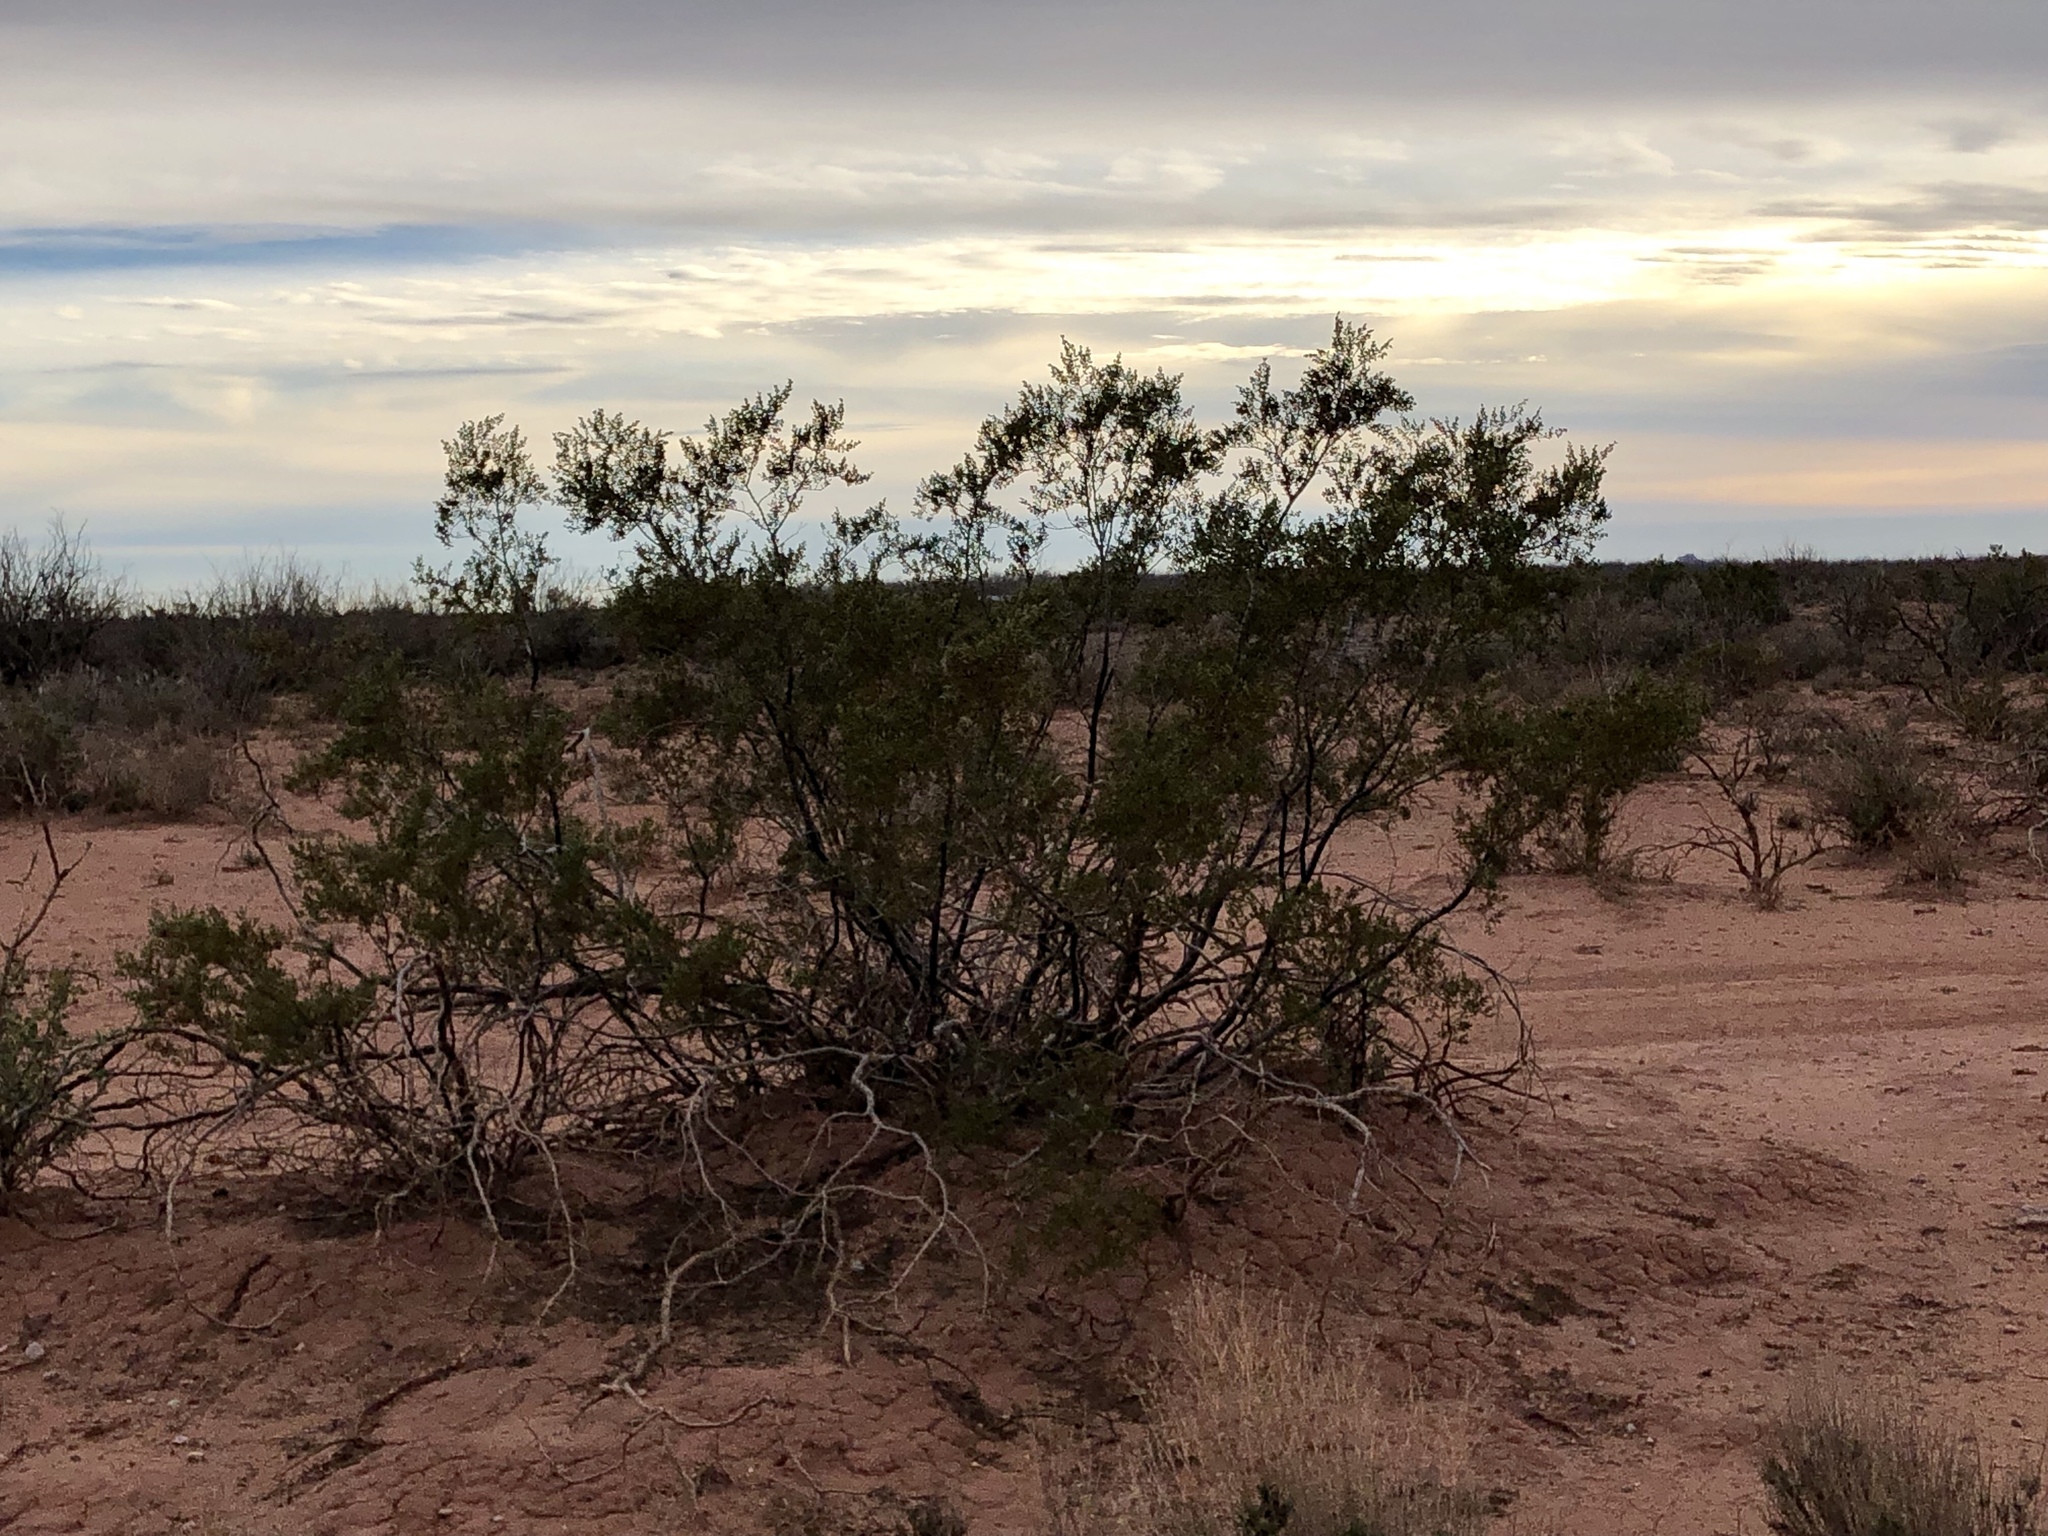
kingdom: Plantae
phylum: Tracheophyta
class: Magnoliopsida
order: Zygophyllales
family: Zygophyllaceae
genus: Larrea
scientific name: Larrea tridentata
